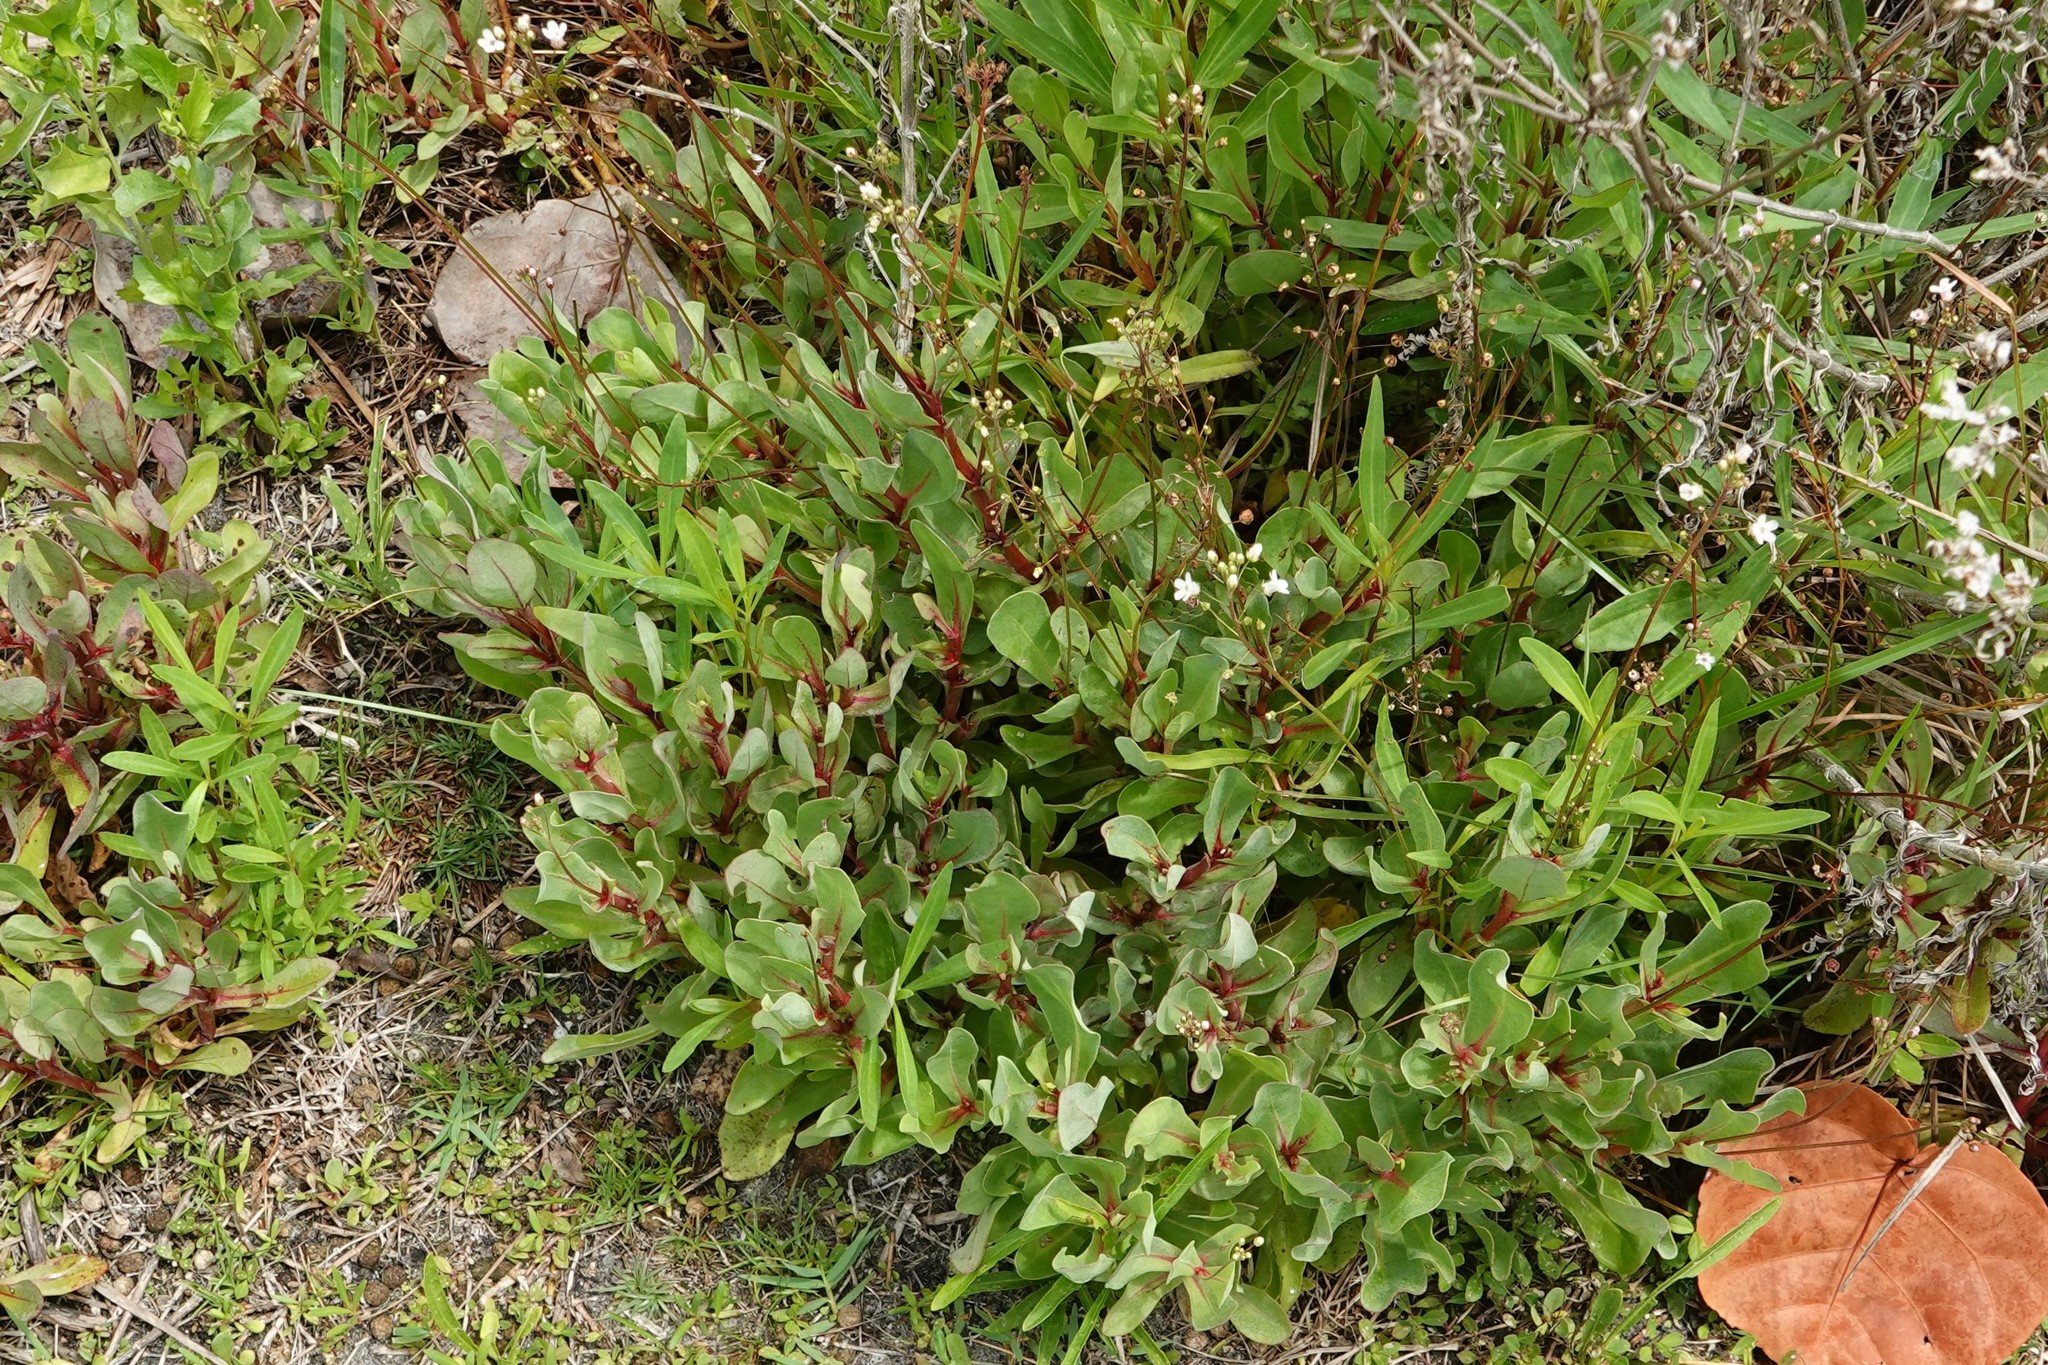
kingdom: Plantae
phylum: Tracheophyta
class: Magnoliopsida
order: Ericales
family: Primulaceae
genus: Samolus
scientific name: Samolus ebracteatus
